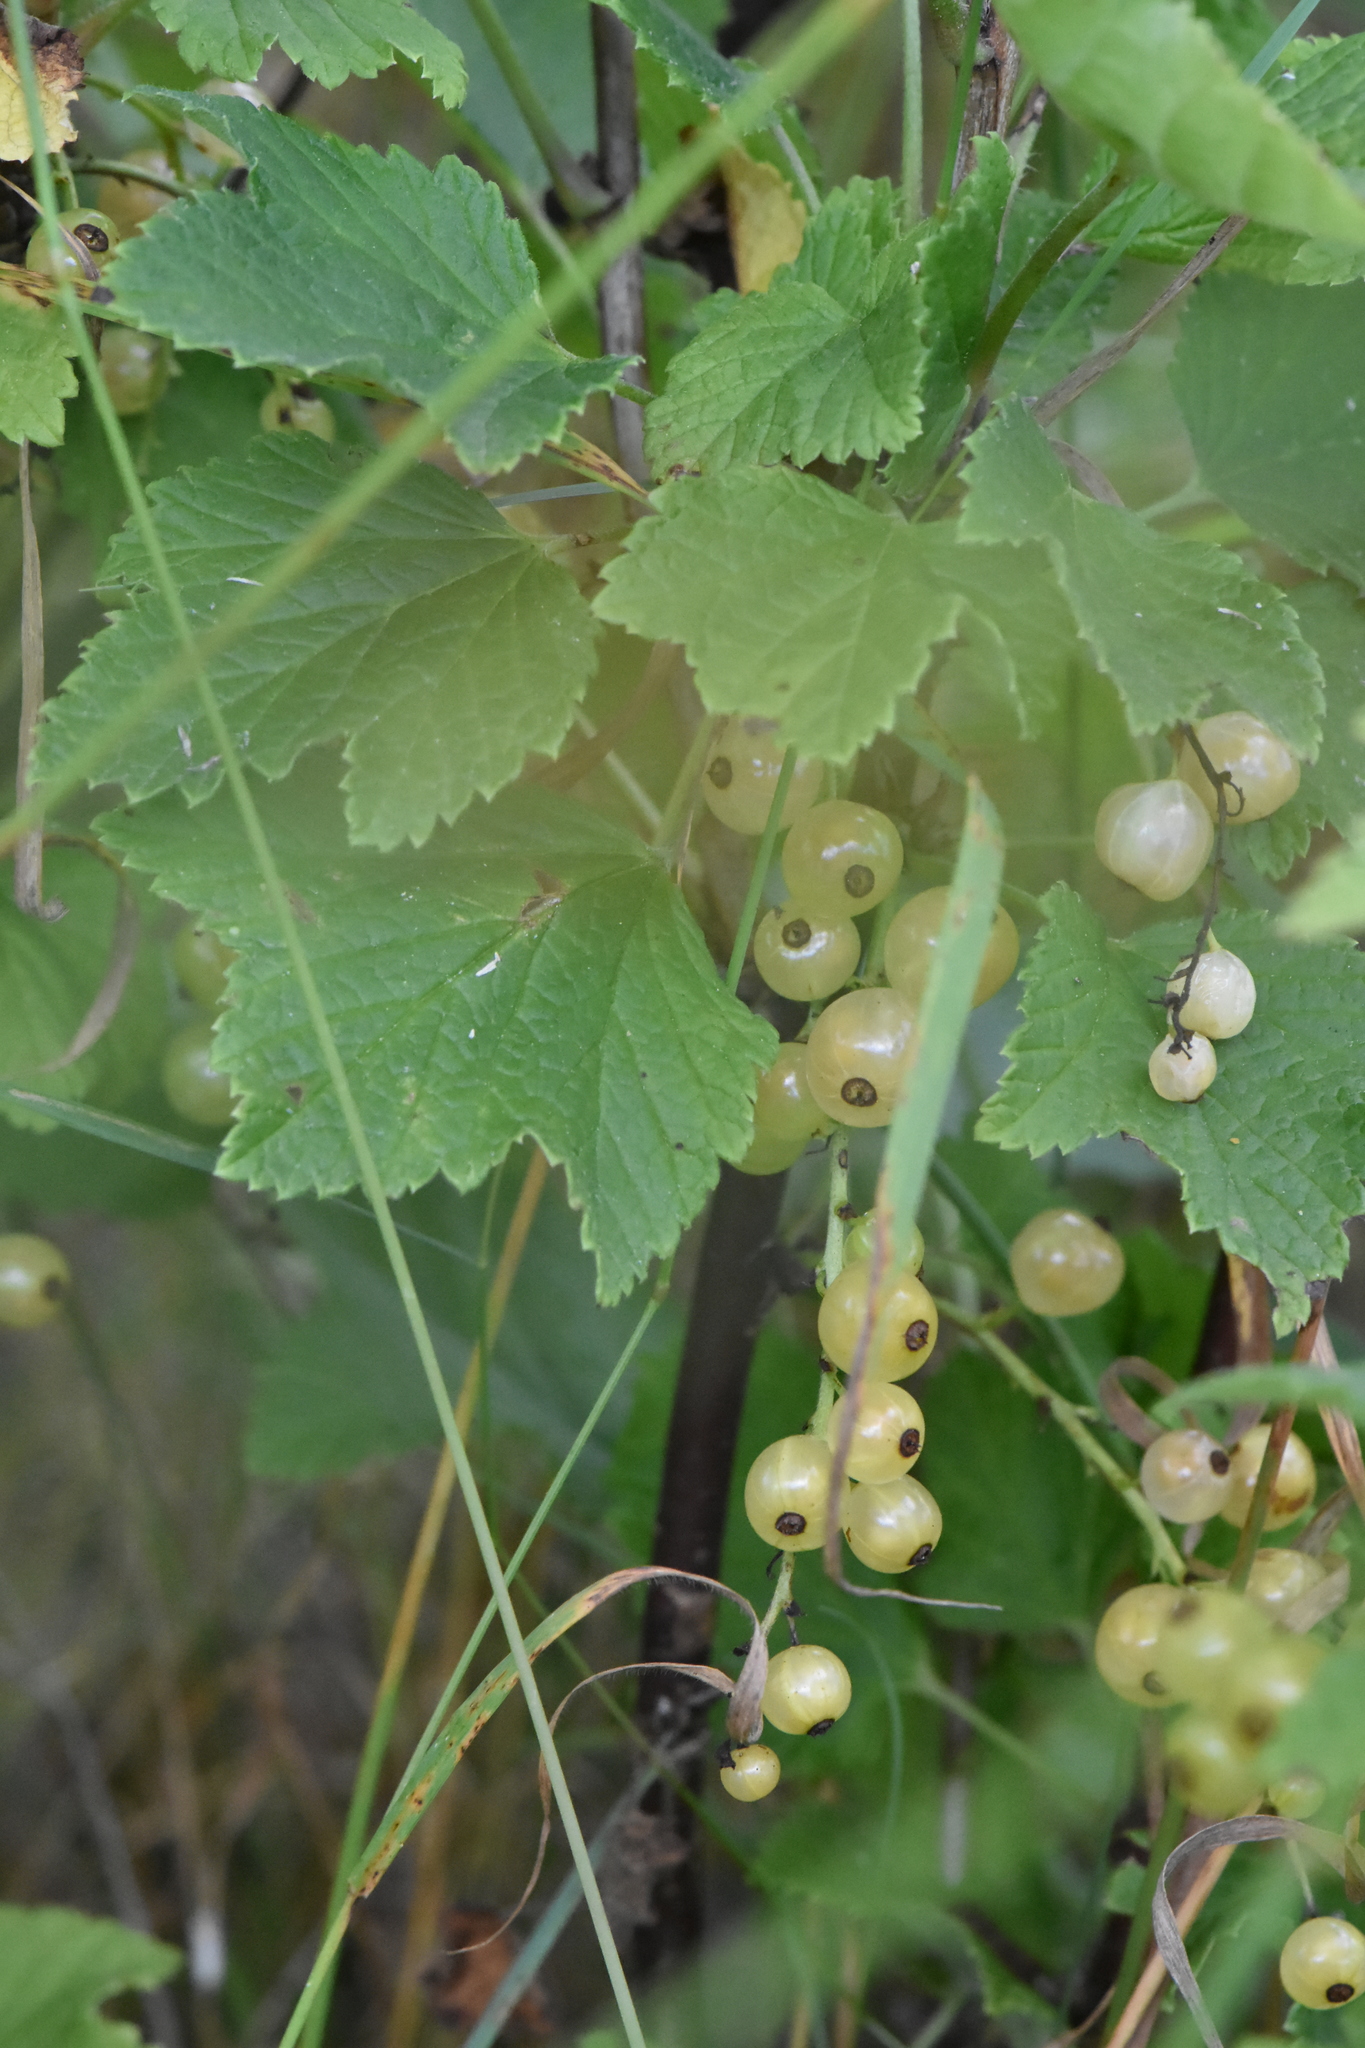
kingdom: Plantae
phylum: Tracheophyta
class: Magnoliopsida
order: Saxifragales
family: Grossulariaceae
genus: Ribes
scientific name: Ribes rubrum
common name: Red currant
